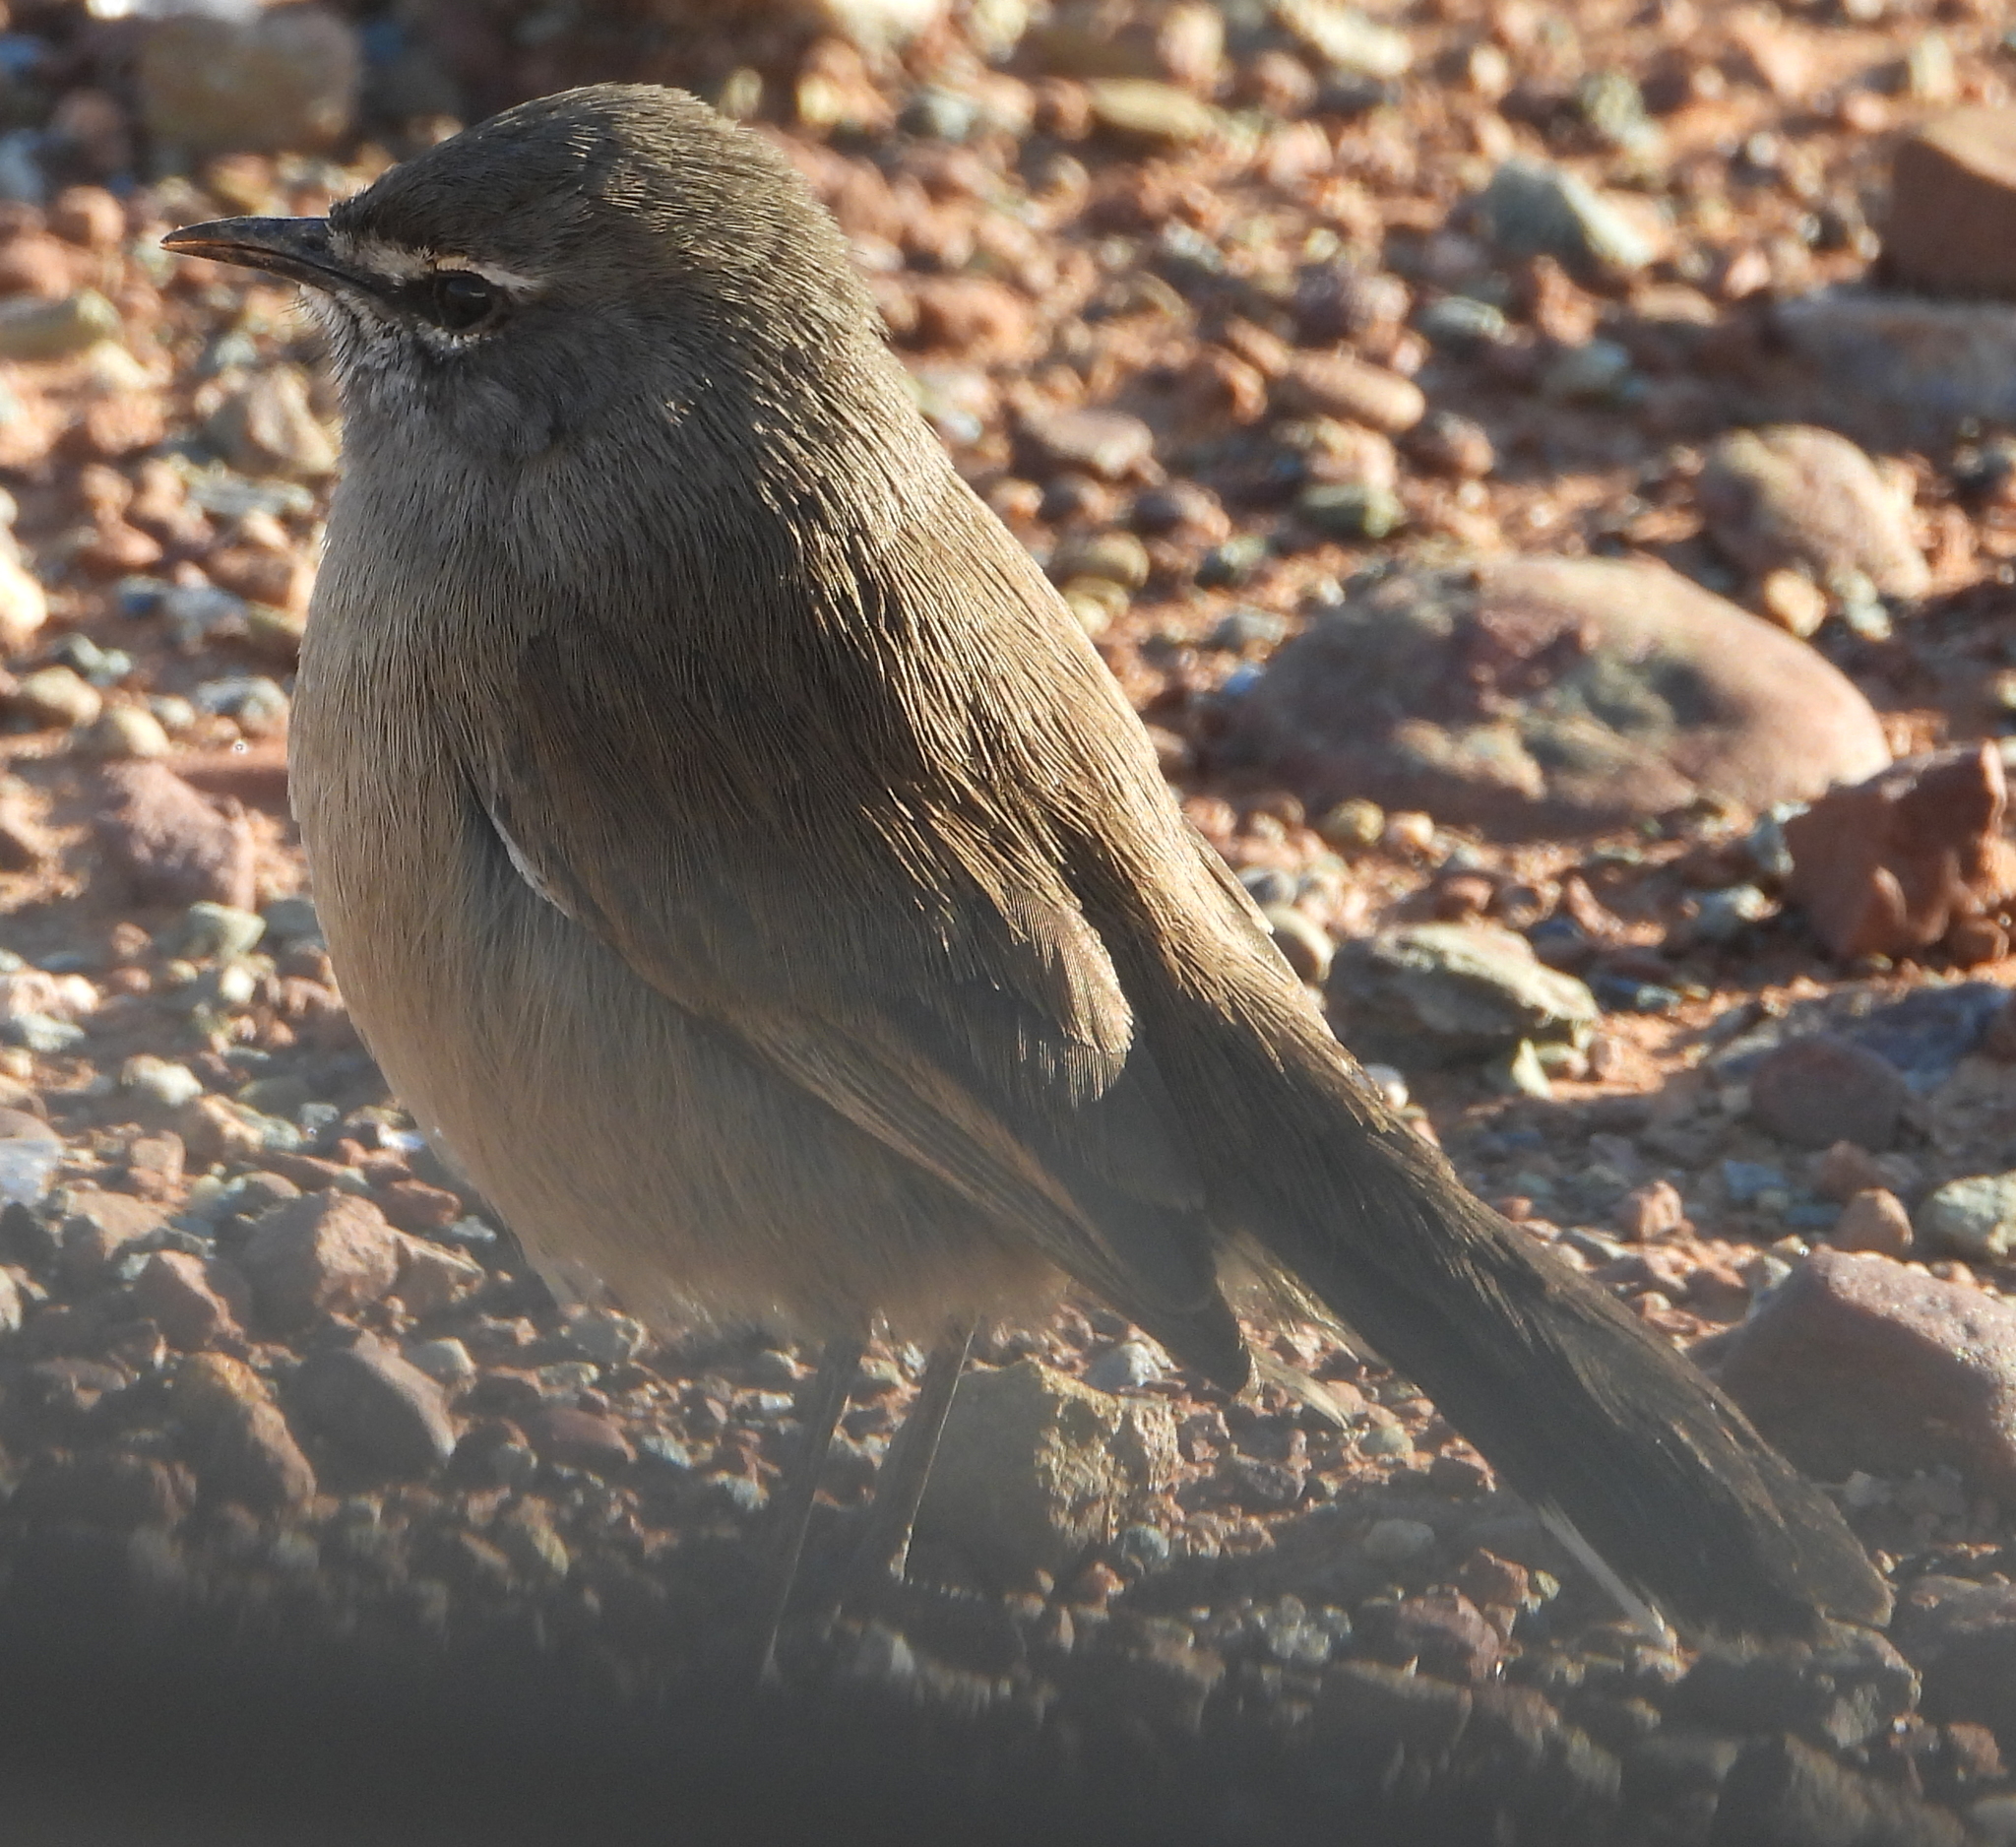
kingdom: Animalia
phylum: Chordata
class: Aves
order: Passeriformes
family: Muscicapidae
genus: Erythropygia
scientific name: Erythropygia coryphoeus
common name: Karoo scrub robin
